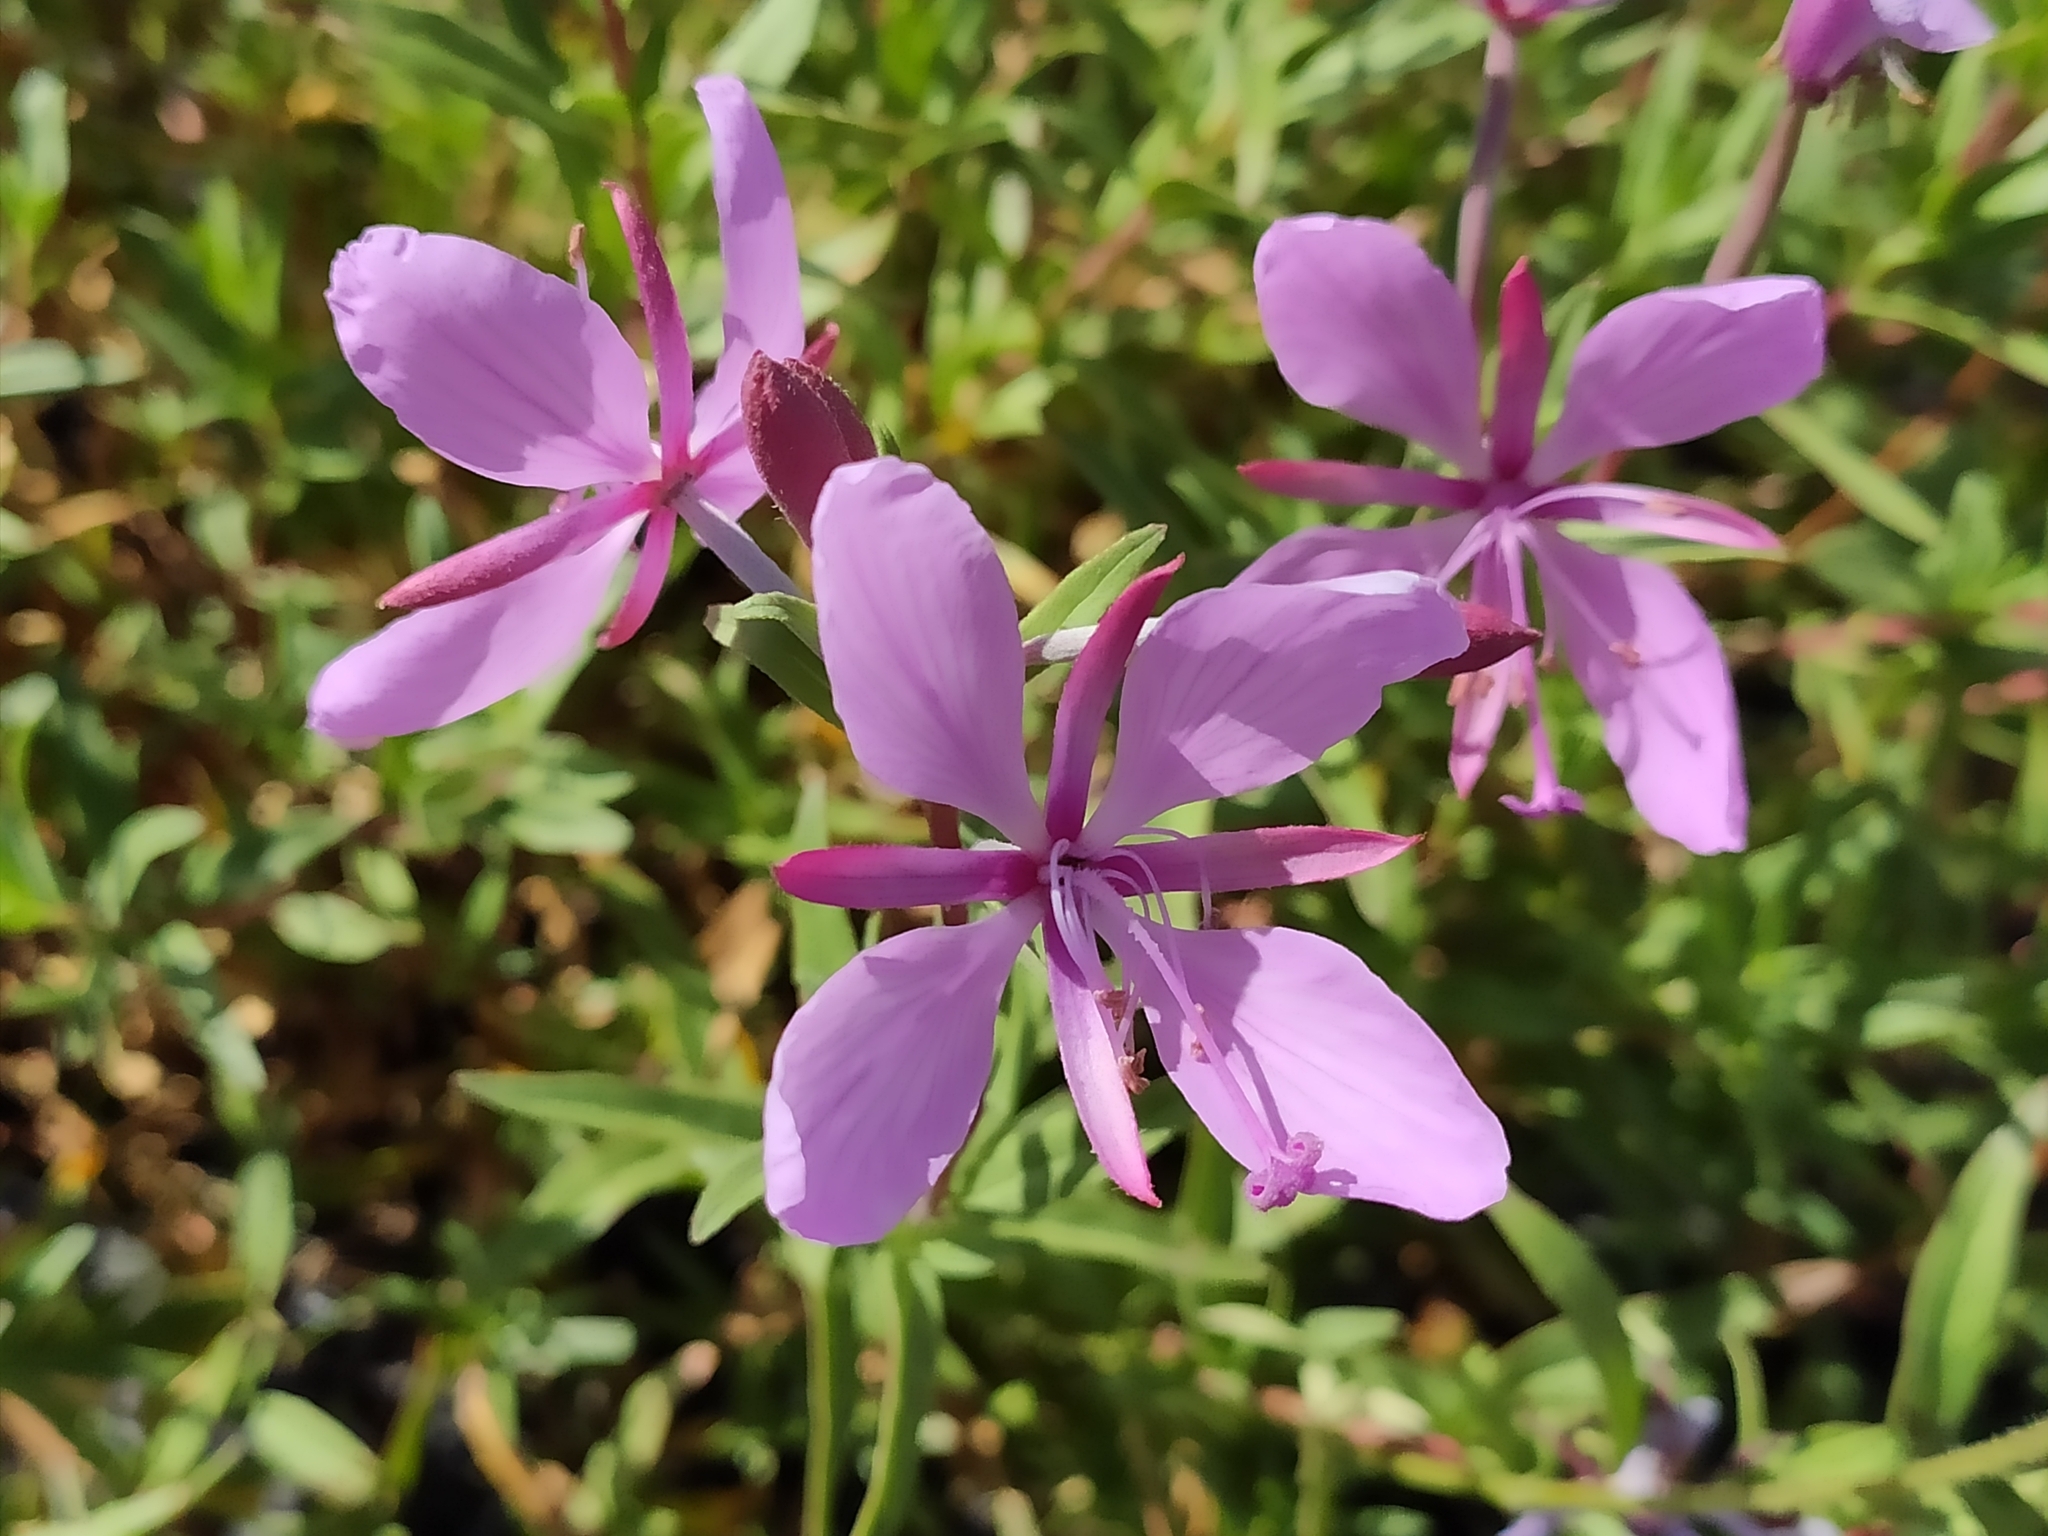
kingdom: Plantae
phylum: Tracheophyta
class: Magnoliopsida
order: Myrtales
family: Onagraceae
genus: Chamaenerion
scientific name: Chamaenerion colchicum
